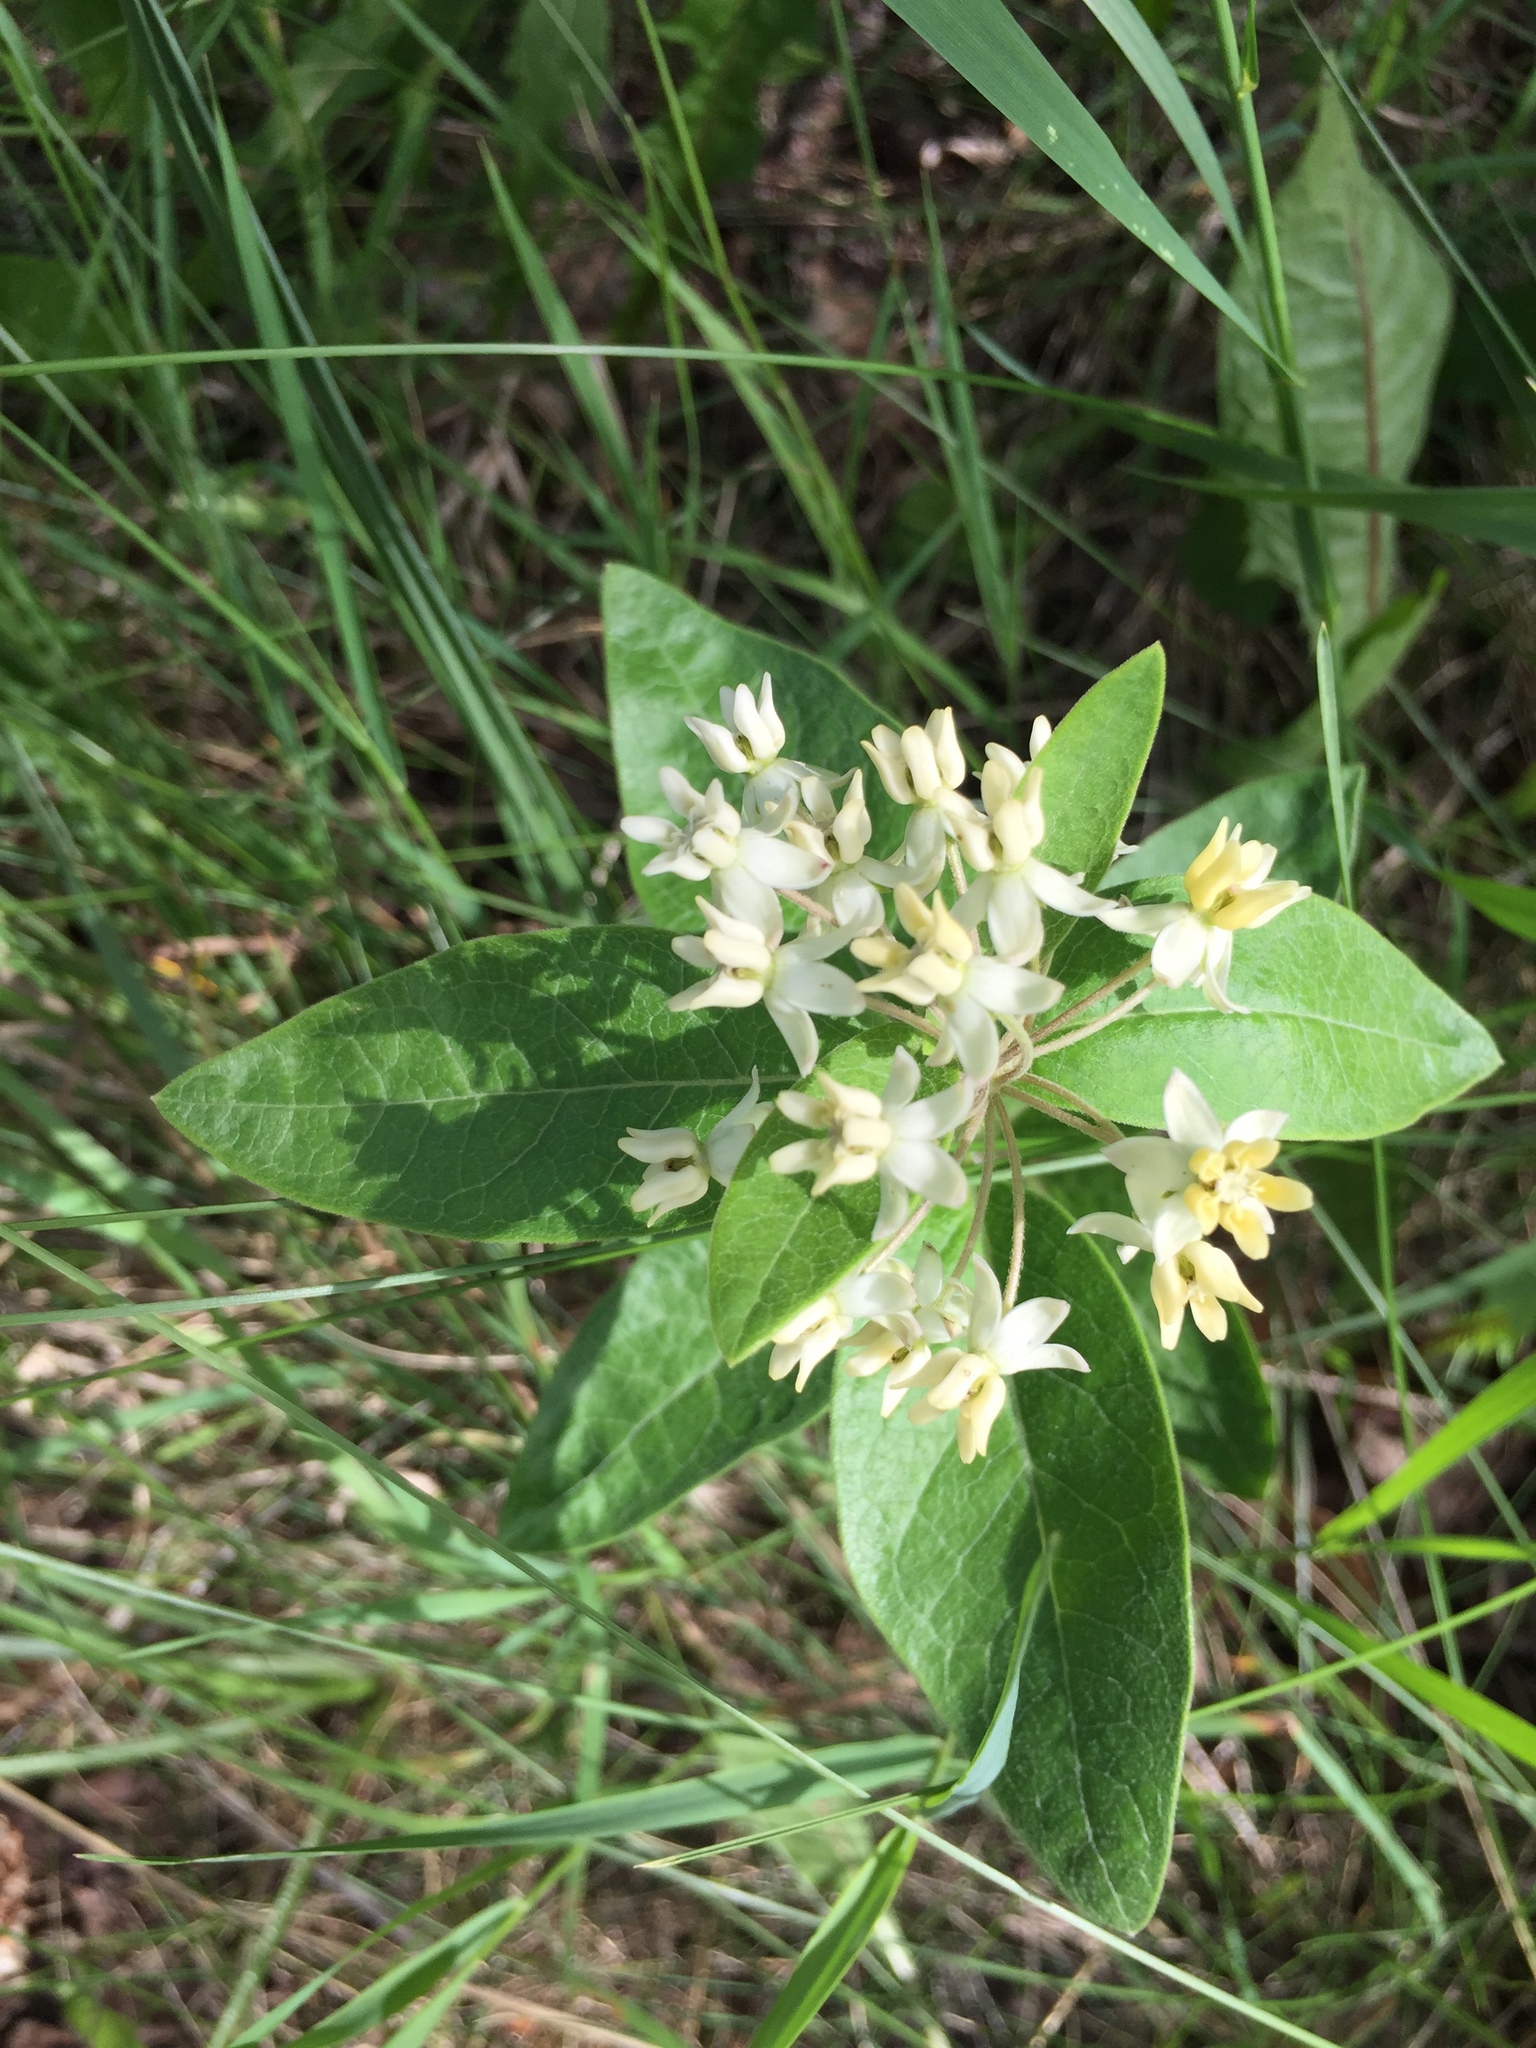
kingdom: Plantae
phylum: Tracheophyta
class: Magnoliopsida
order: Gentianales
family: Apocynaceae
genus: Asclepias
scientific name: Asclepias ovalifolia
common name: Dwarf milkweed
